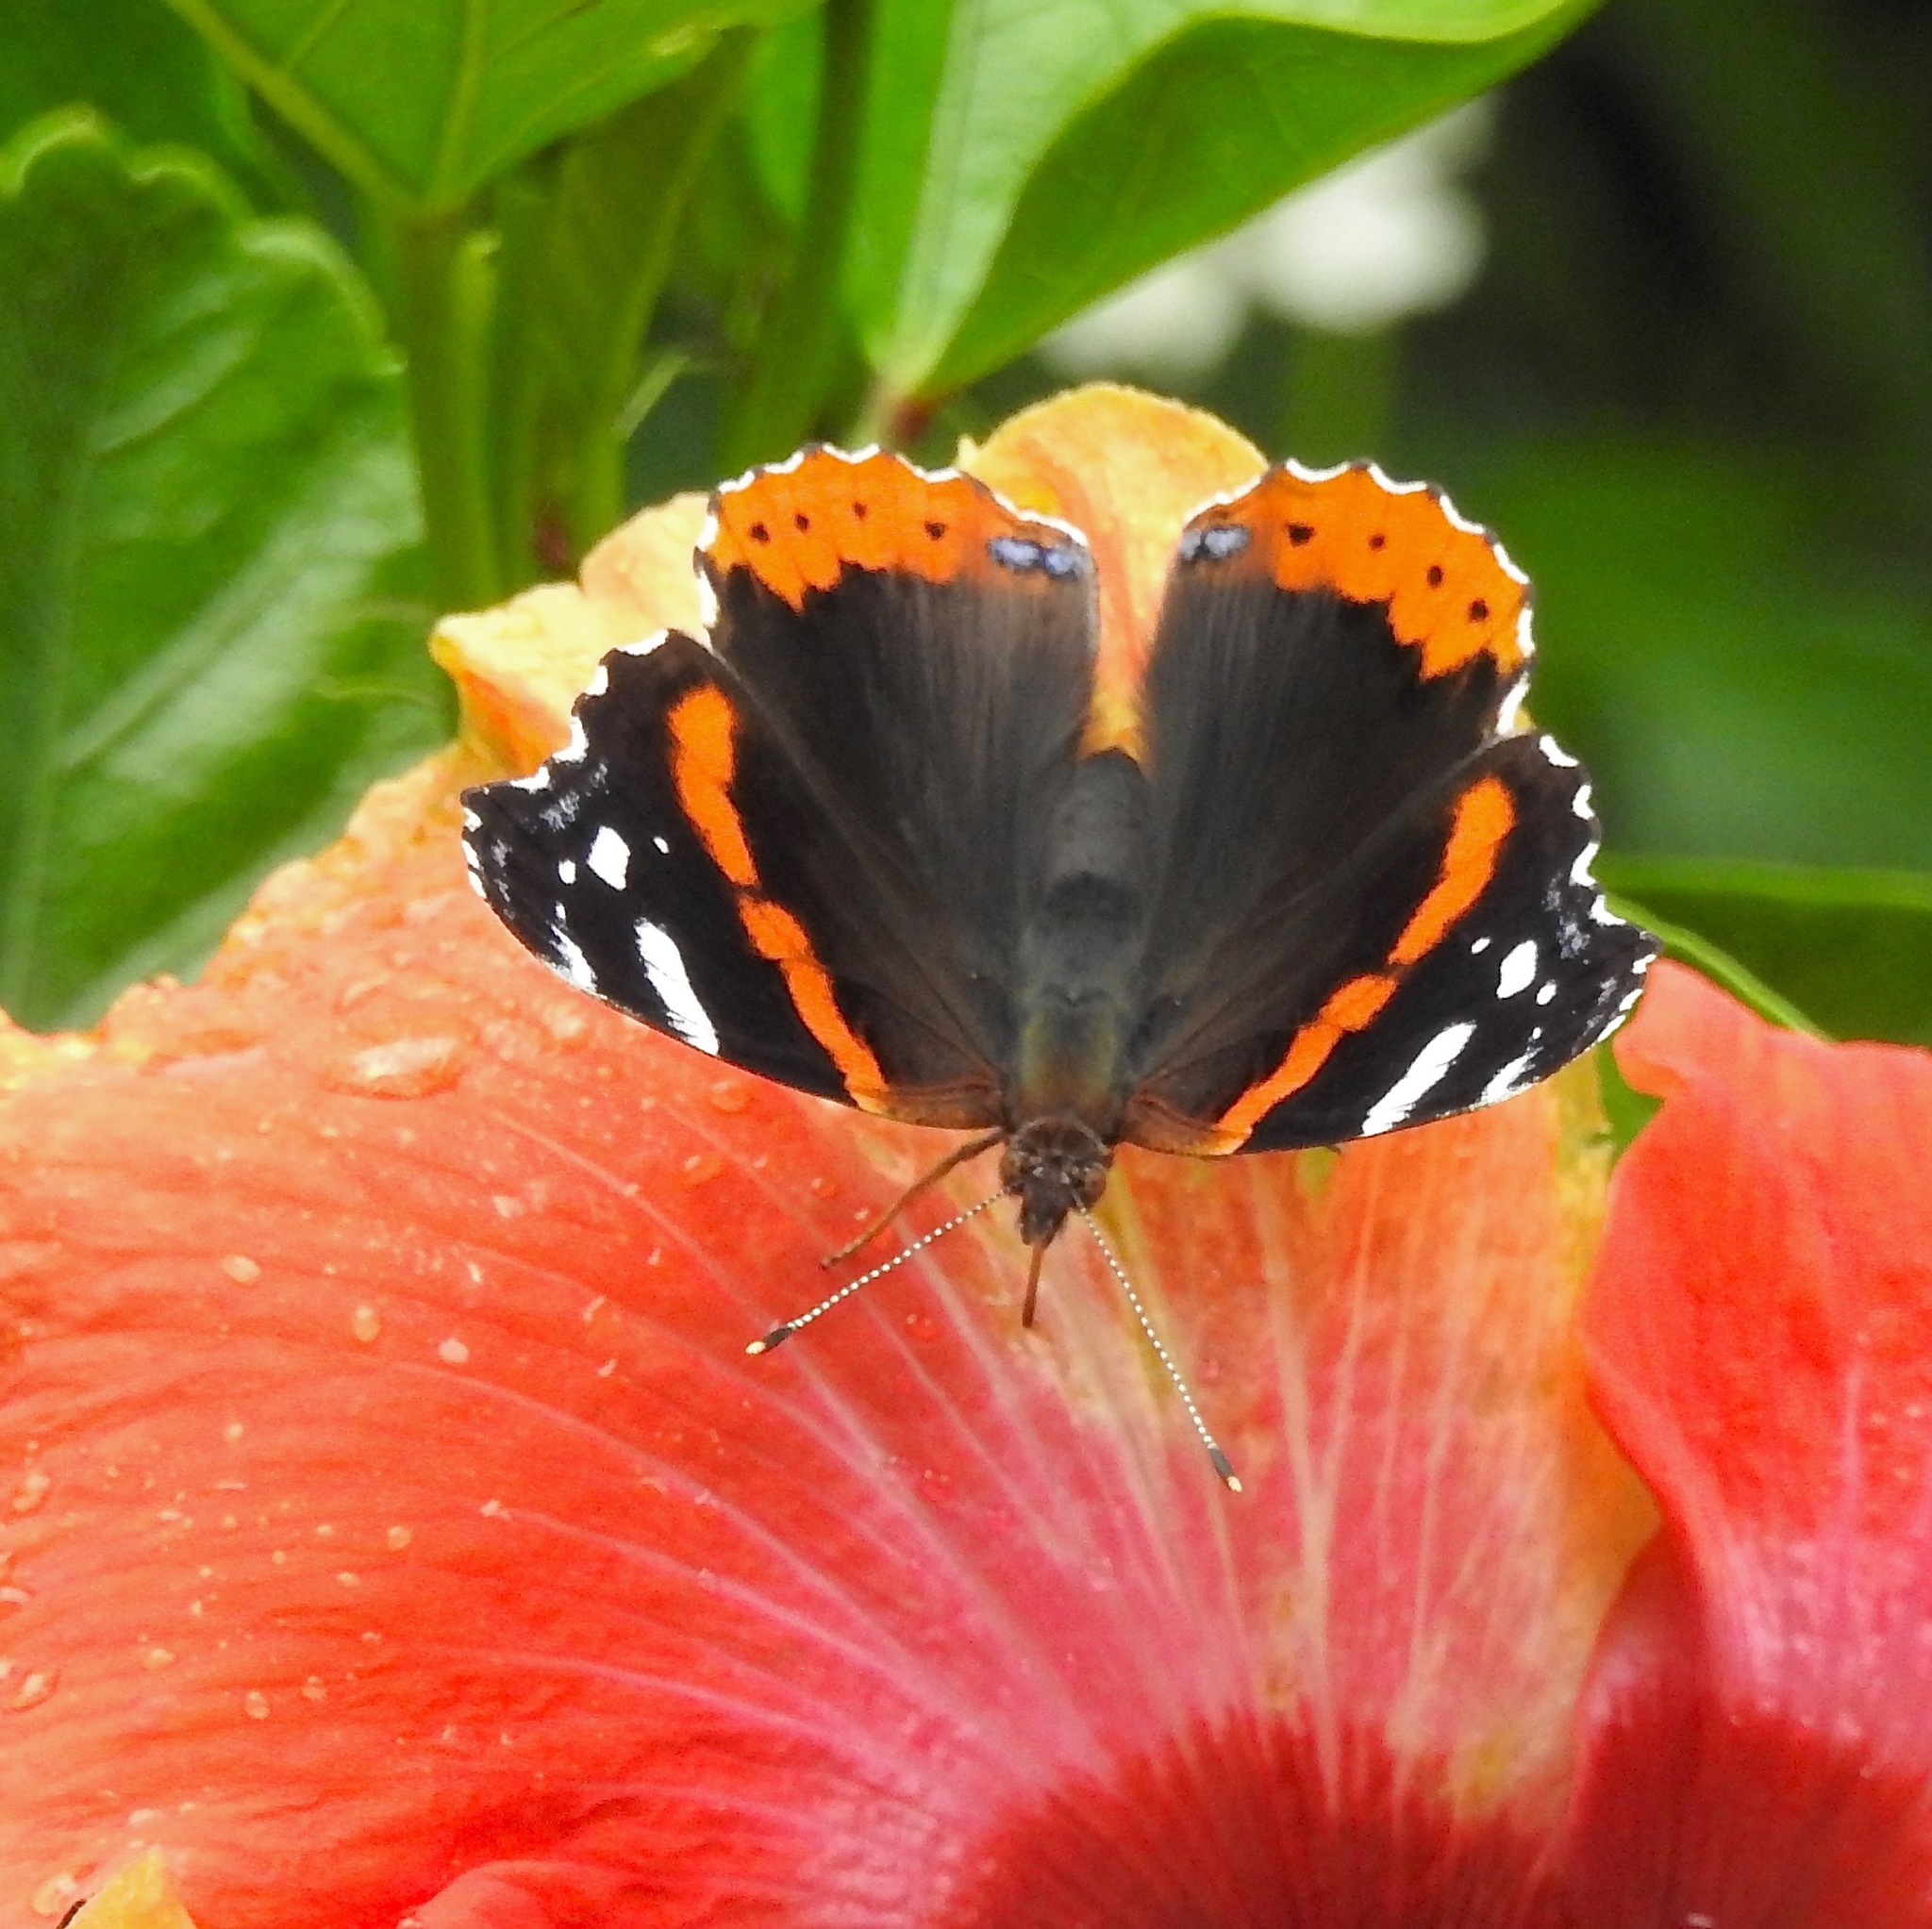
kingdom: Animalia
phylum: Arthropoda
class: Insecta
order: Lepidoptera
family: Nymphalidae
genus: Vanessa
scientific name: Vanessa atalanta
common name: Red admiral
